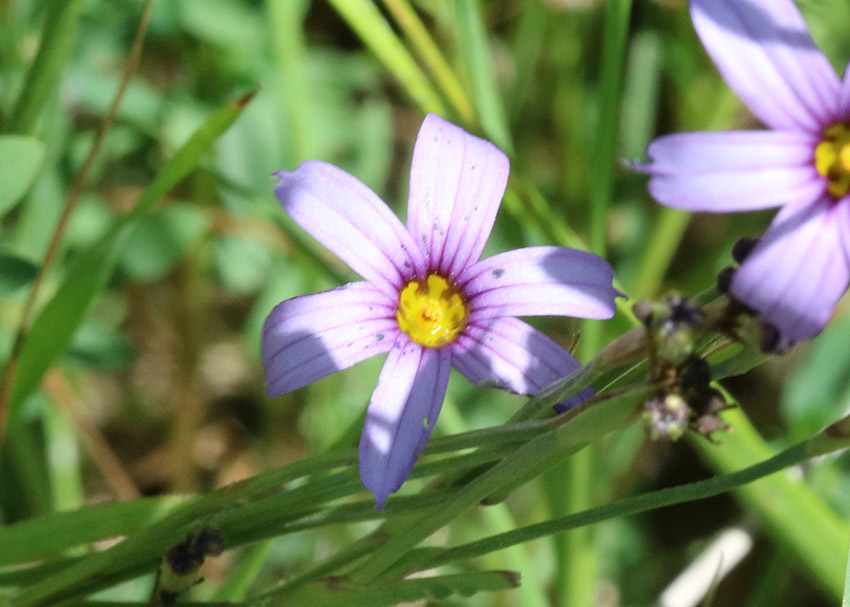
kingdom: Plantae
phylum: Tracheophyta
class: Liliopsida
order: Asparagales
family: Iridaceae
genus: Sisyrinchium
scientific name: Sisyrinchium platense
